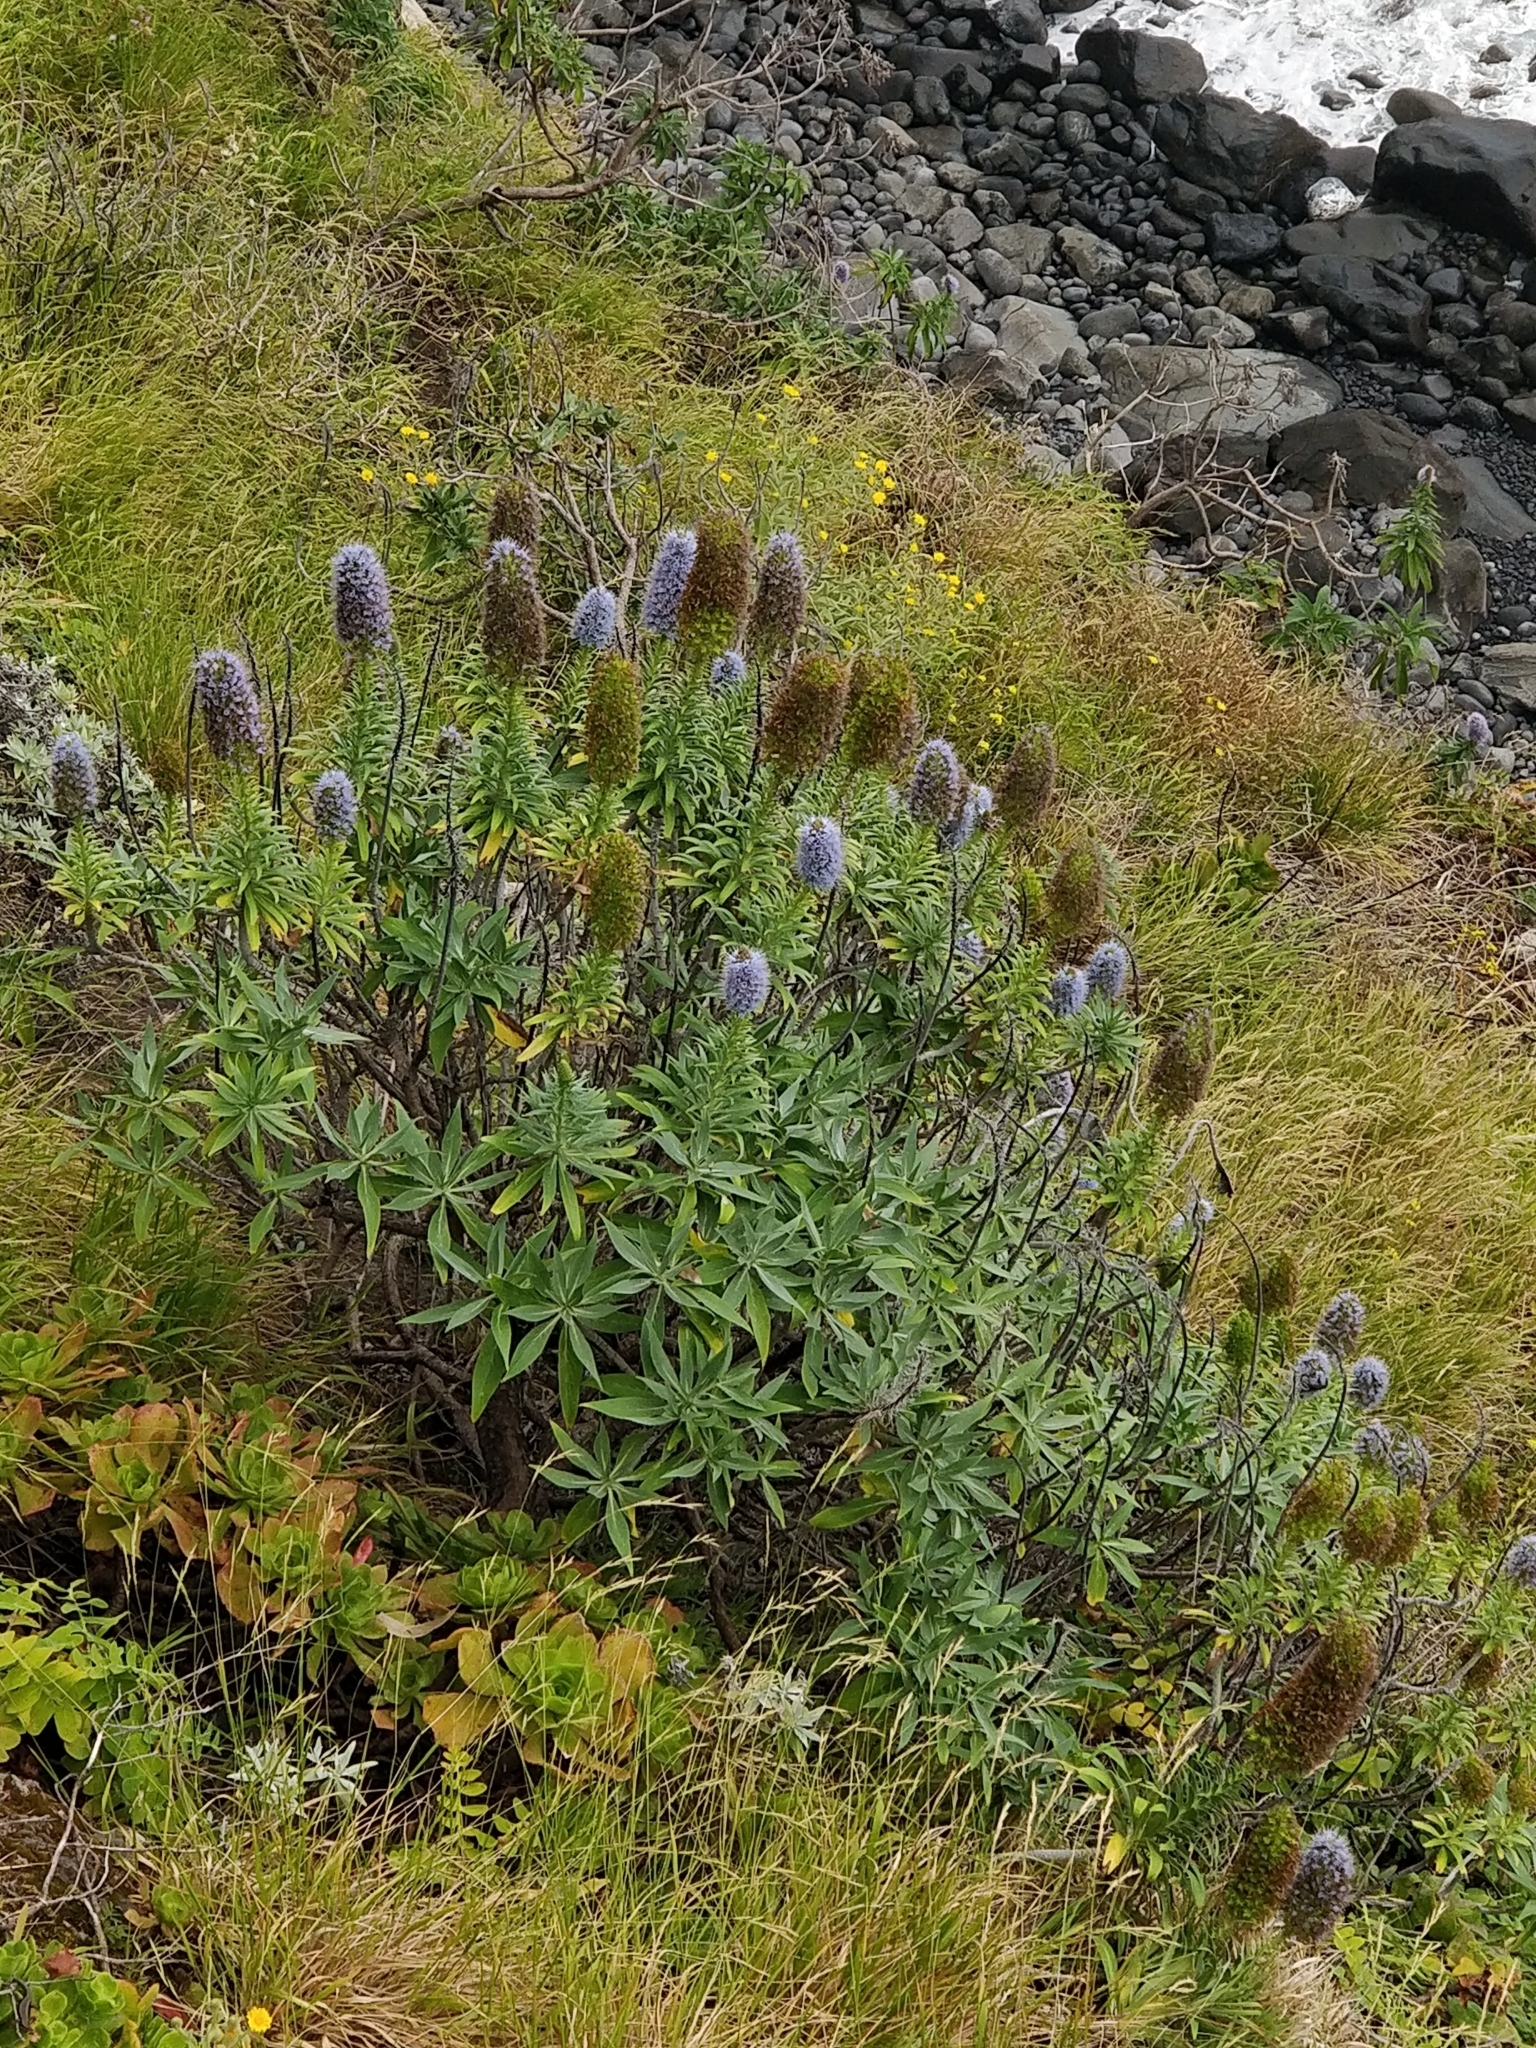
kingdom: Plantae
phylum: Tracheophyta
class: Magnoliopsida
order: Boraginales
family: Boraginaceae
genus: Echium
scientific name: Echium nervosum
